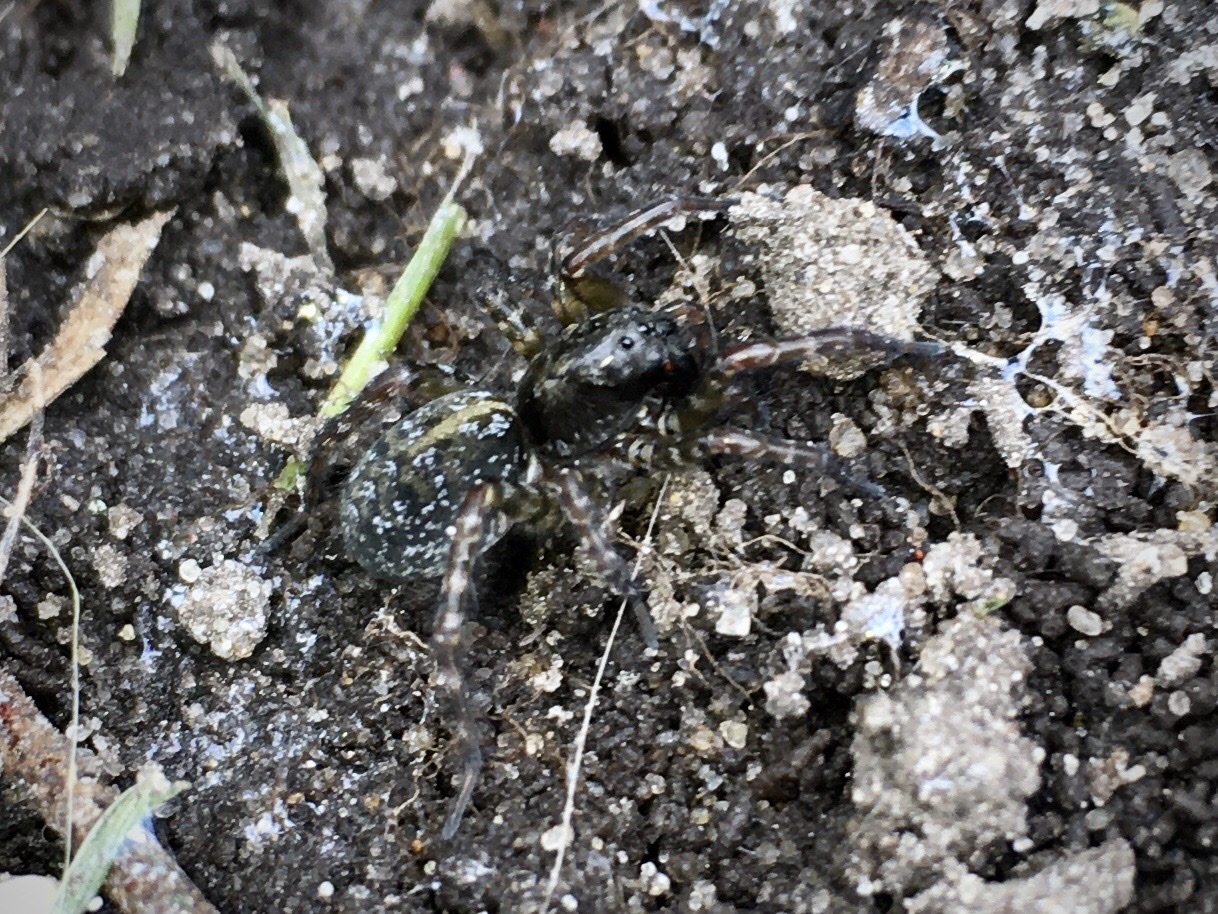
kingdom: Animalia
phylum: Arthropoda
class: Arachnida
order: Araneae
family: Lycosidae
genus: Arctosa
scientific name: Arctosa leopardus
